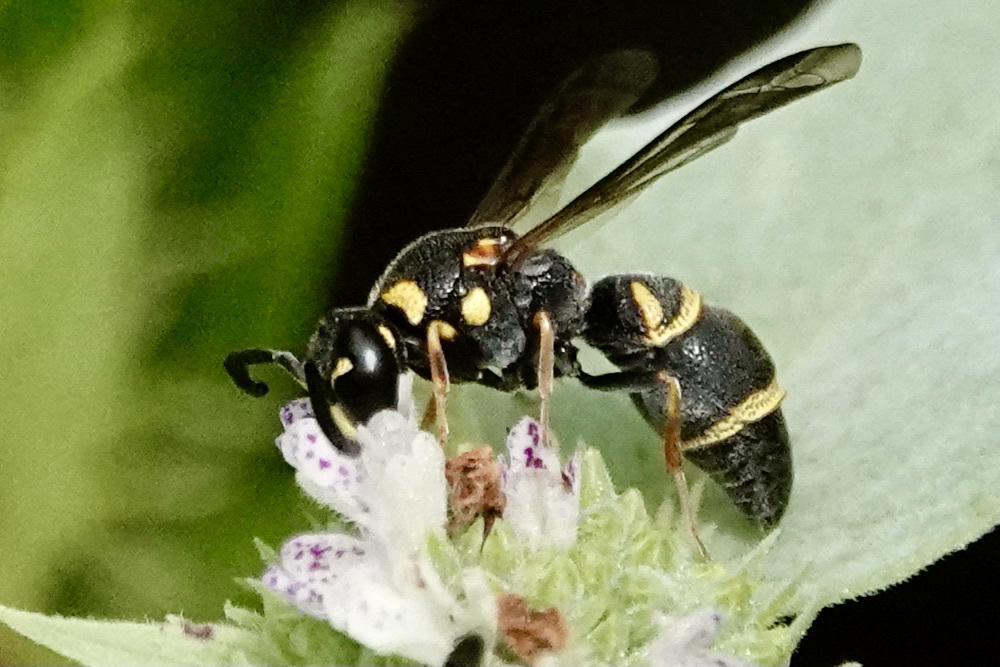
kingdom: Animalia
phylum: Arthropoda
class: Insecta
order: Hymenoptera
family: Eumenidae
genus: Parancistrocerus
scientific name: Parancistrocerus fulvipes
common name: Potter wasp
